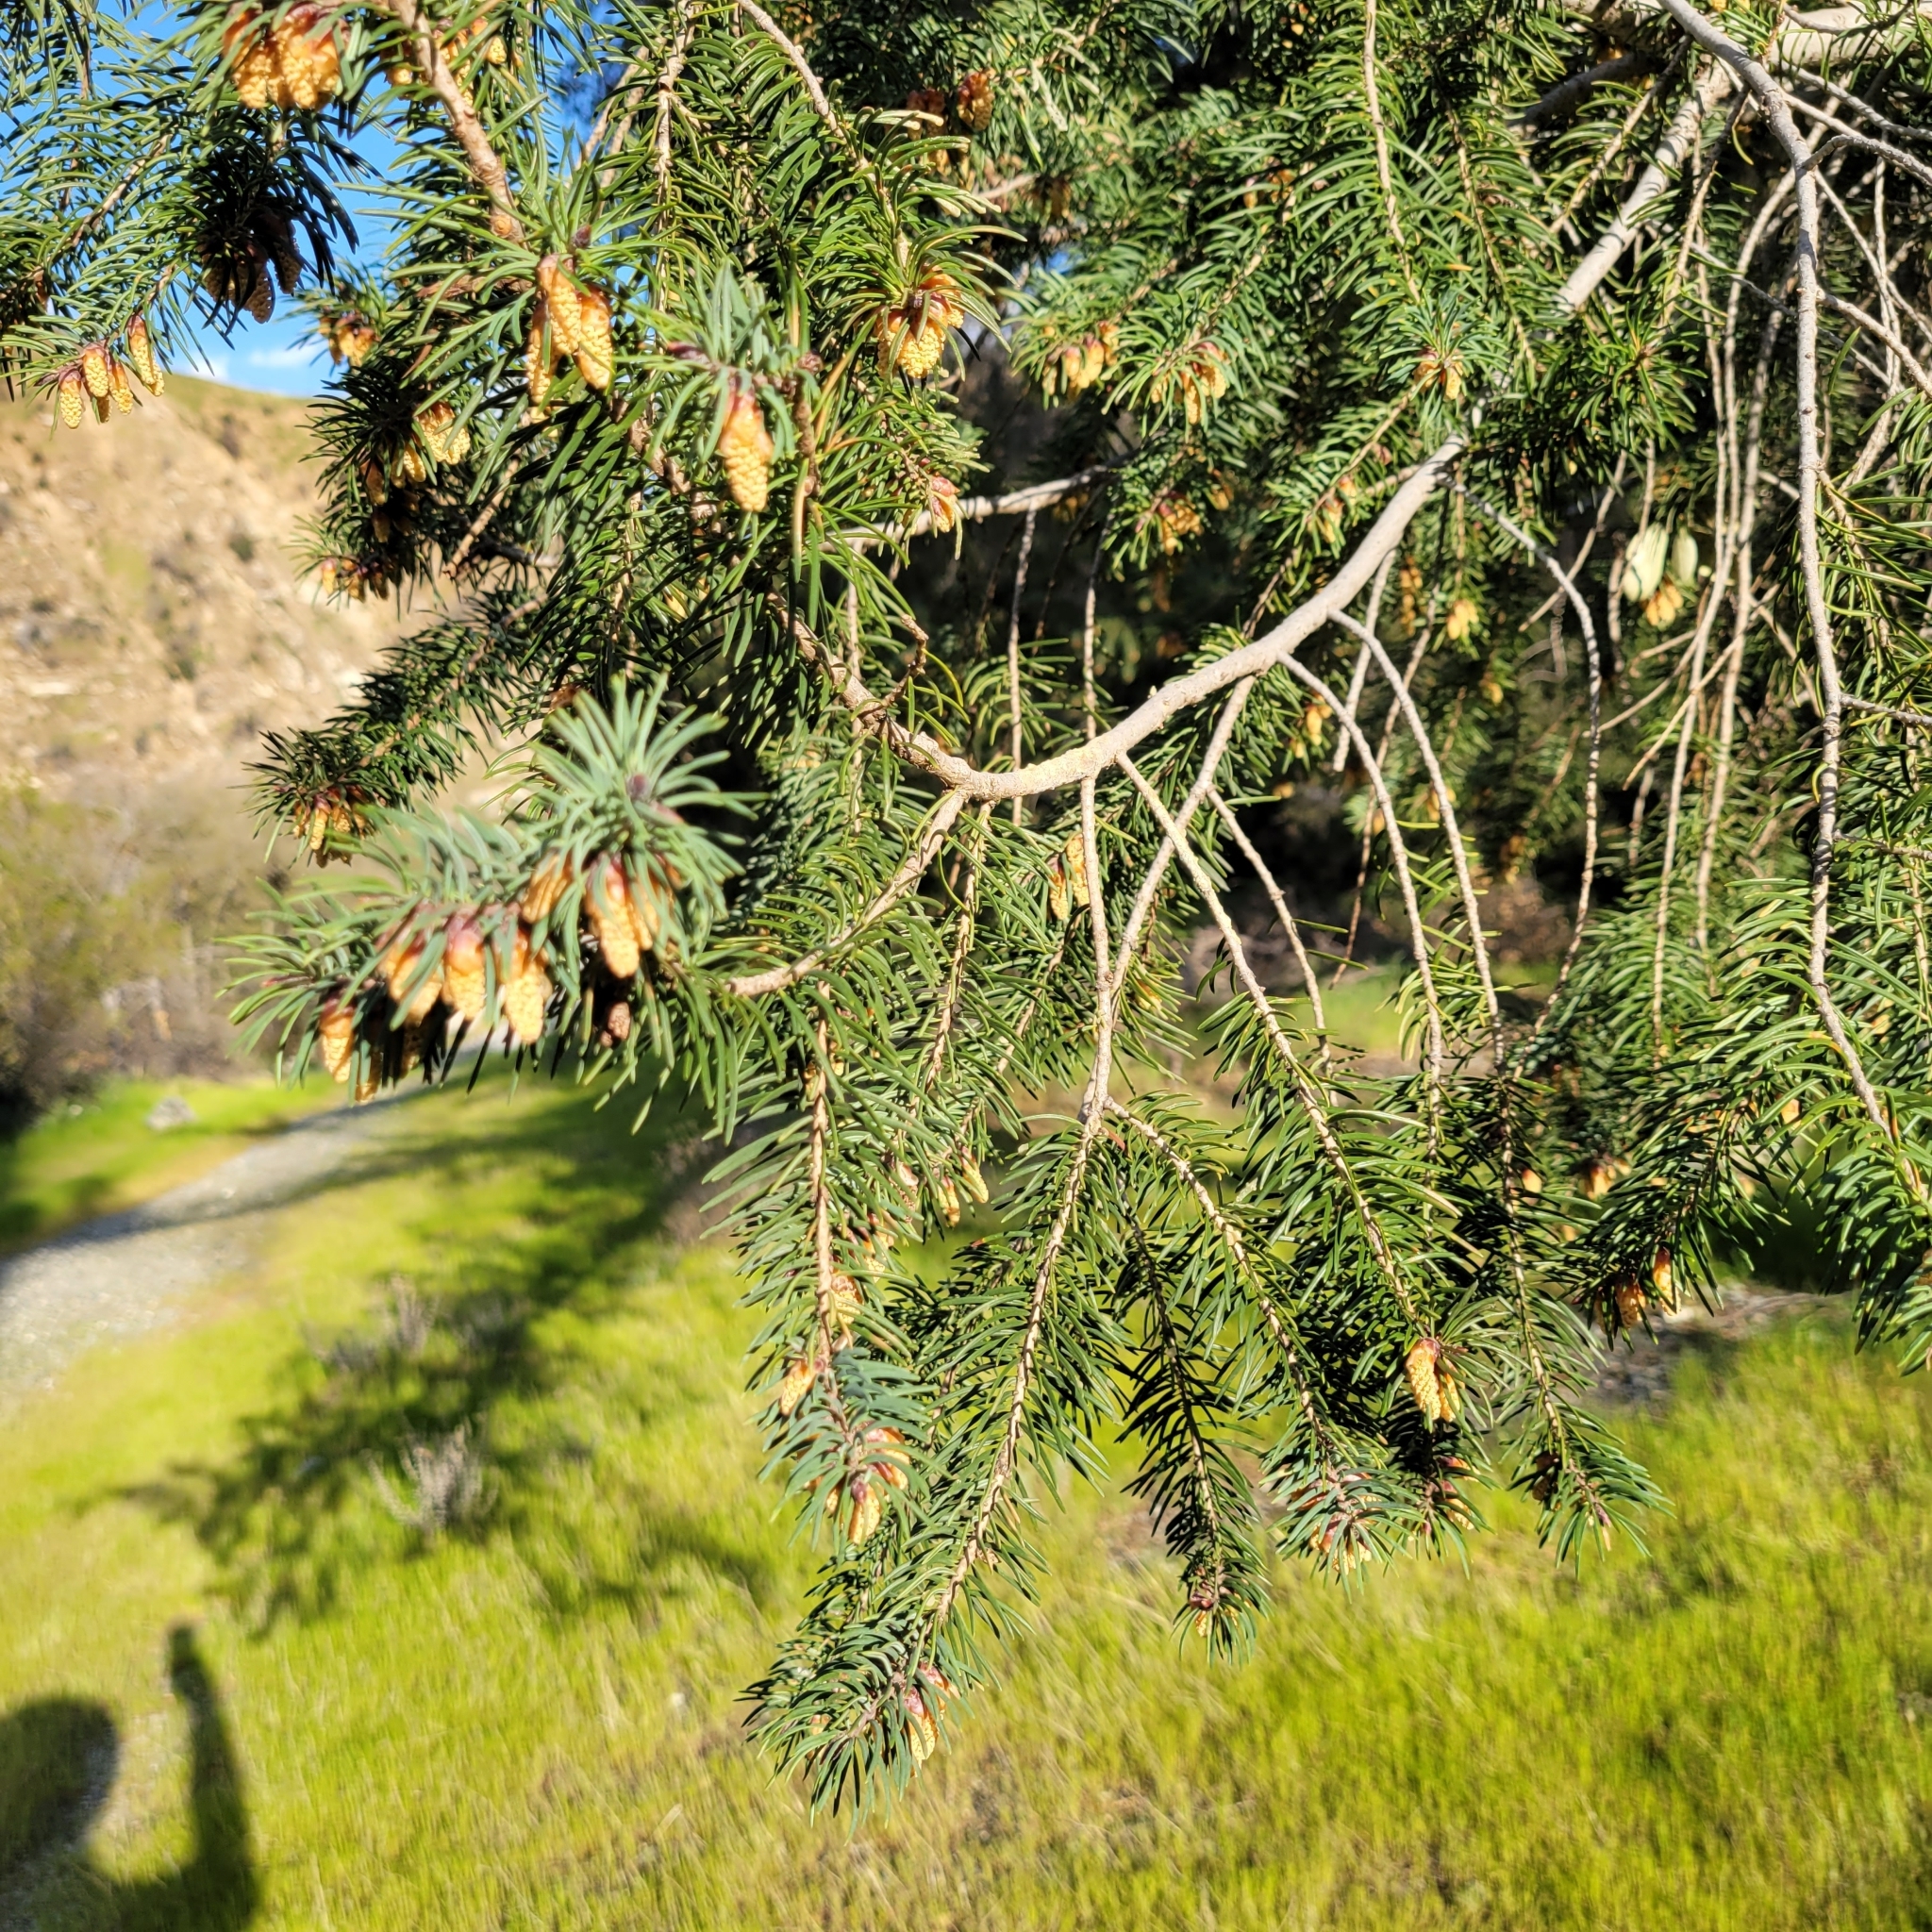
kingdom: Plantae
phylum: Tracheophyta
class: Pinopsida
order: Pinales
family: Pinaceae
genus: Pseudotsuga
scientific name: Pseudotsuga macrocarpa
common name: Big-cone douglas-fir
